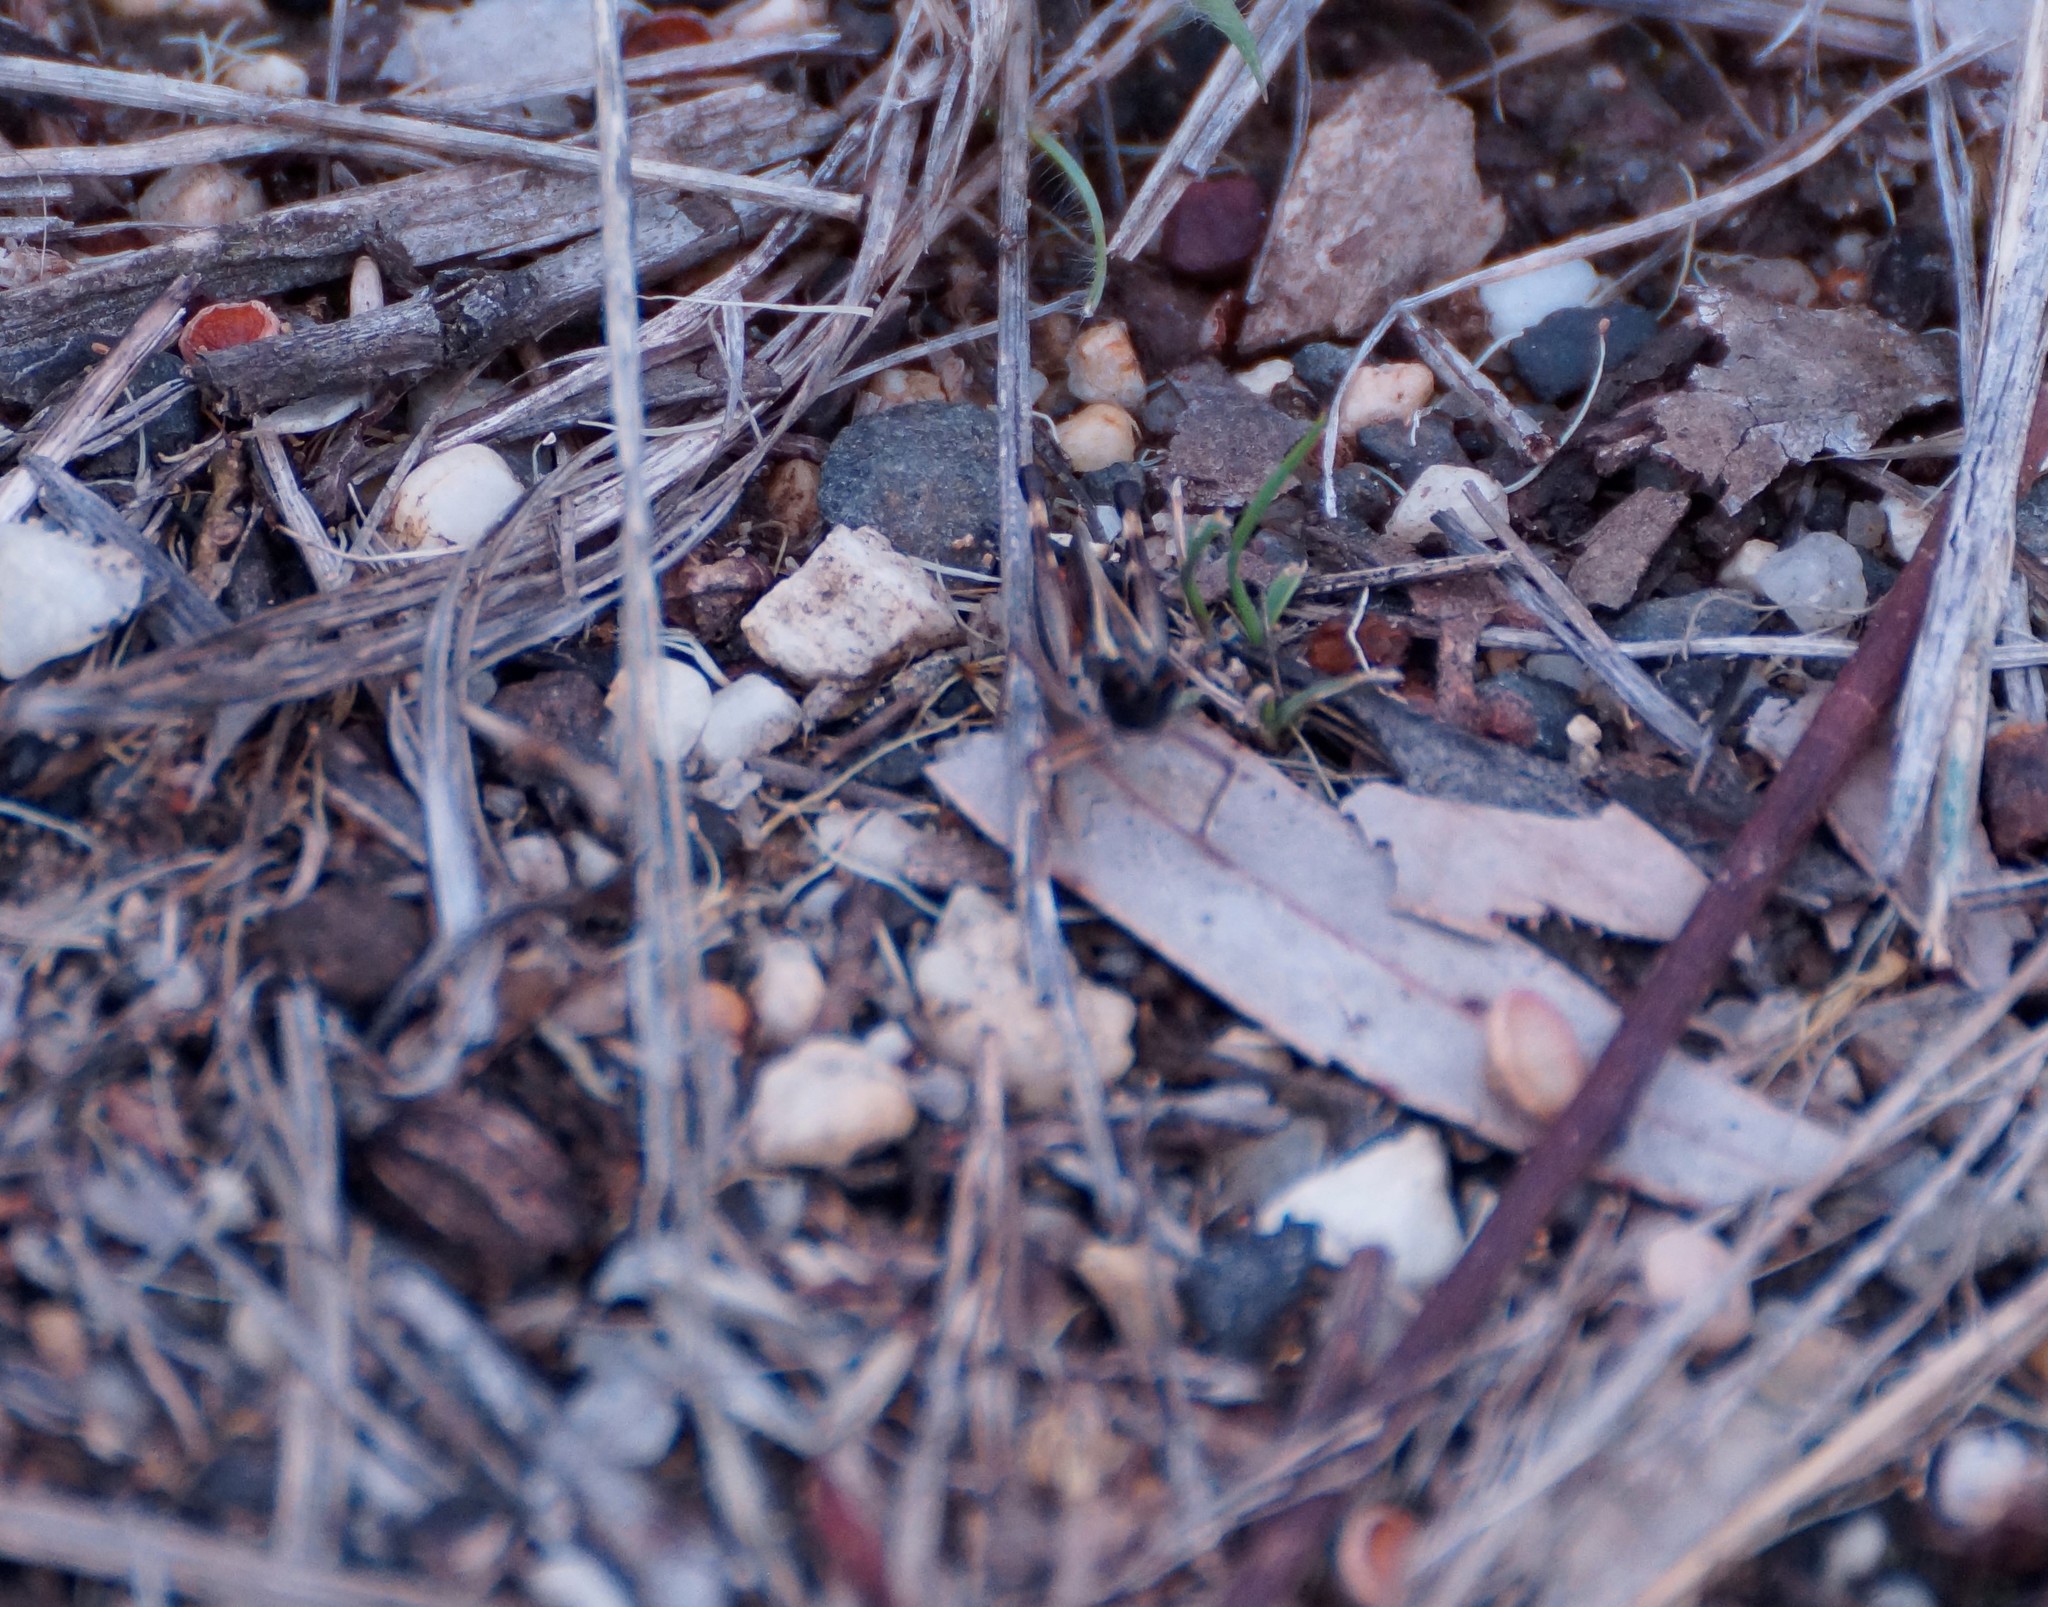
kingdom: Animalia
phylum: Arthropoda
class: Insecta
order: Orthoptera
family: Acrididae
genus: Macrotona
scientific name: Macrotona australis
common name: Common macrotona
